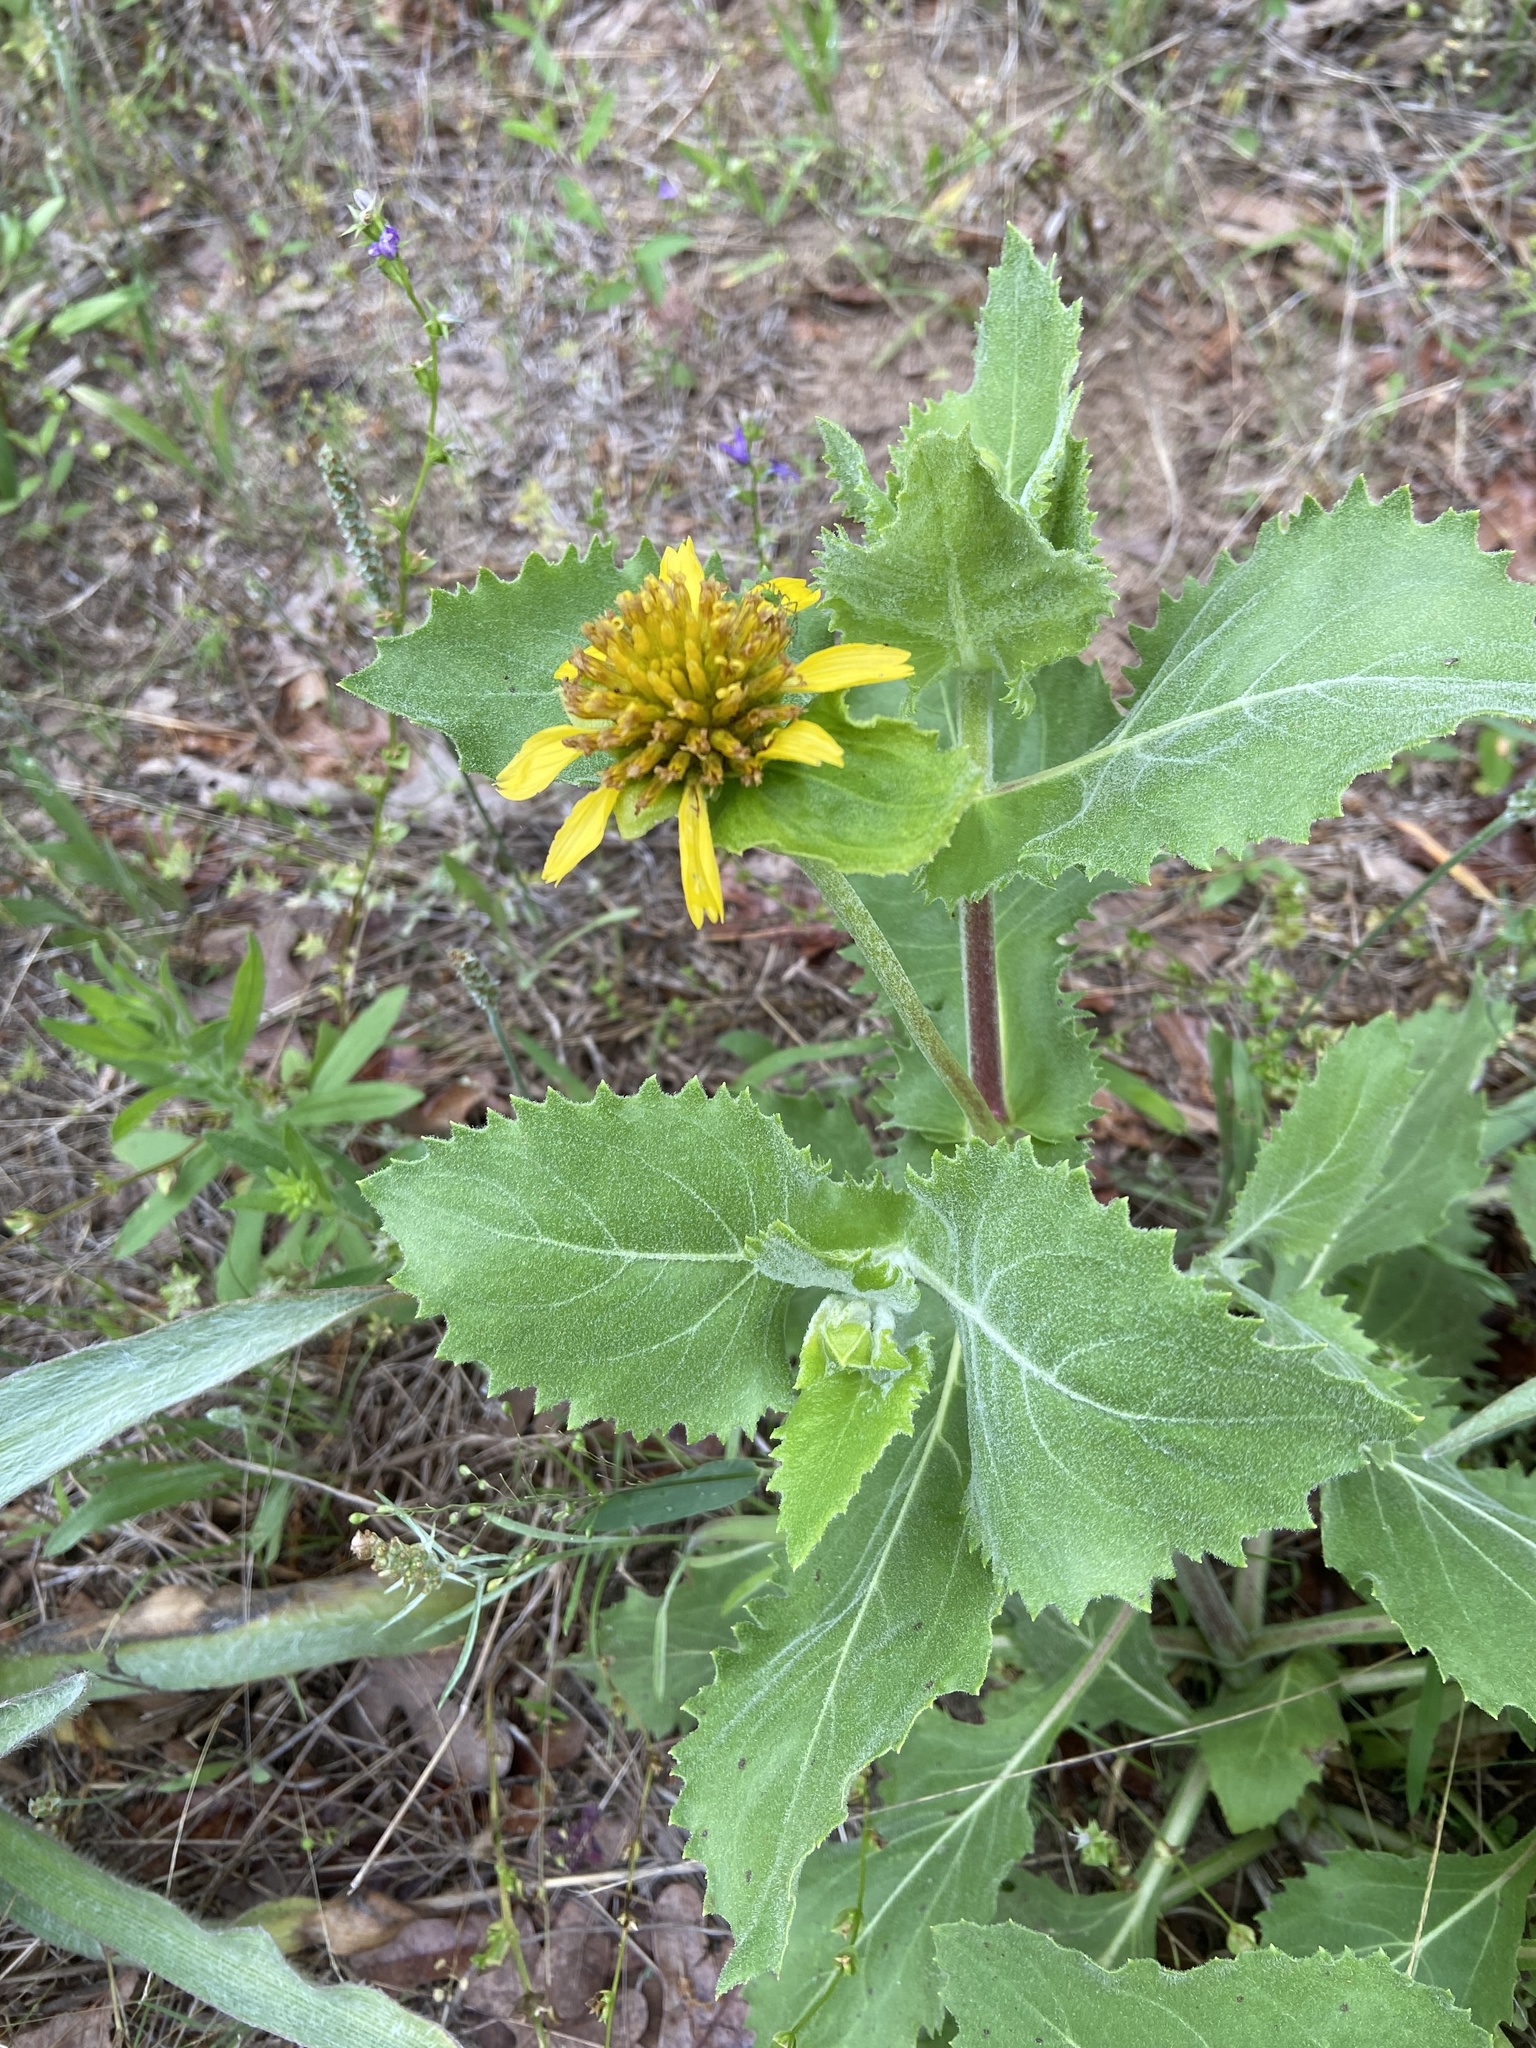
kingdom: Plantae
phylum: Tracheophyta
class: Magnoliopsida
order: Asterales
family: Asteraceae
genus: Tetragonotheca
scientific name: Tetragonotheca ludoviciana
